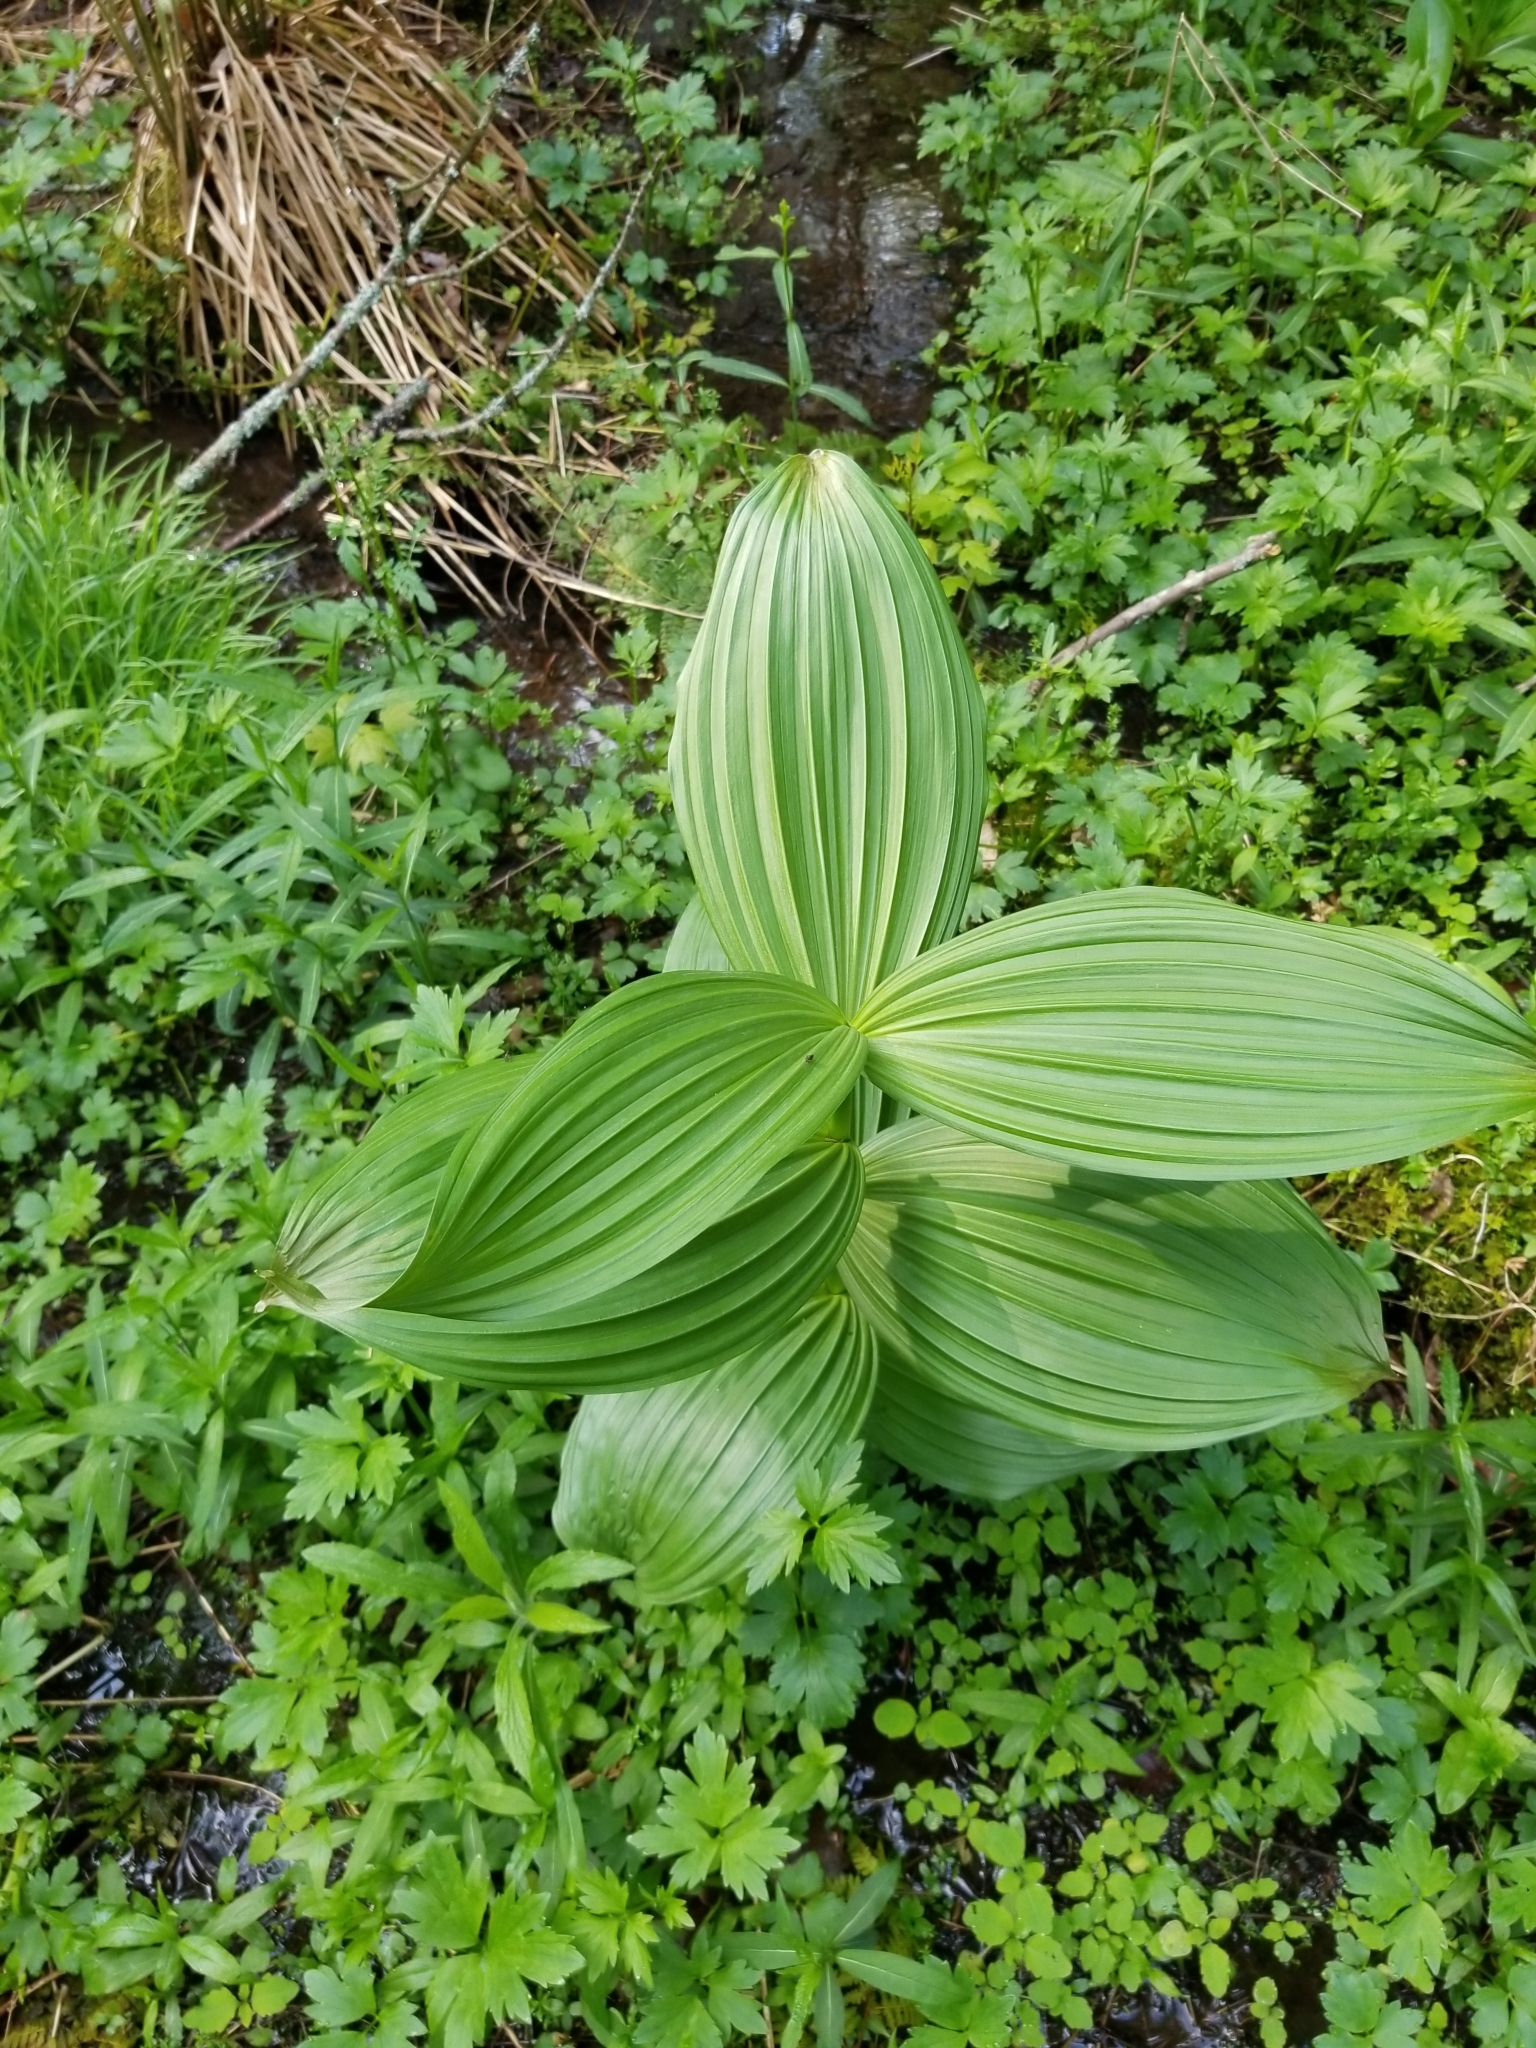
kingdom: Plantae
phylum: Tracheophyta
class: Liliopsida
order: Liliales
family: Melanthiaceae
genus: Veratrum
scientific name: Veratrum viride
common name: American false hellebore
